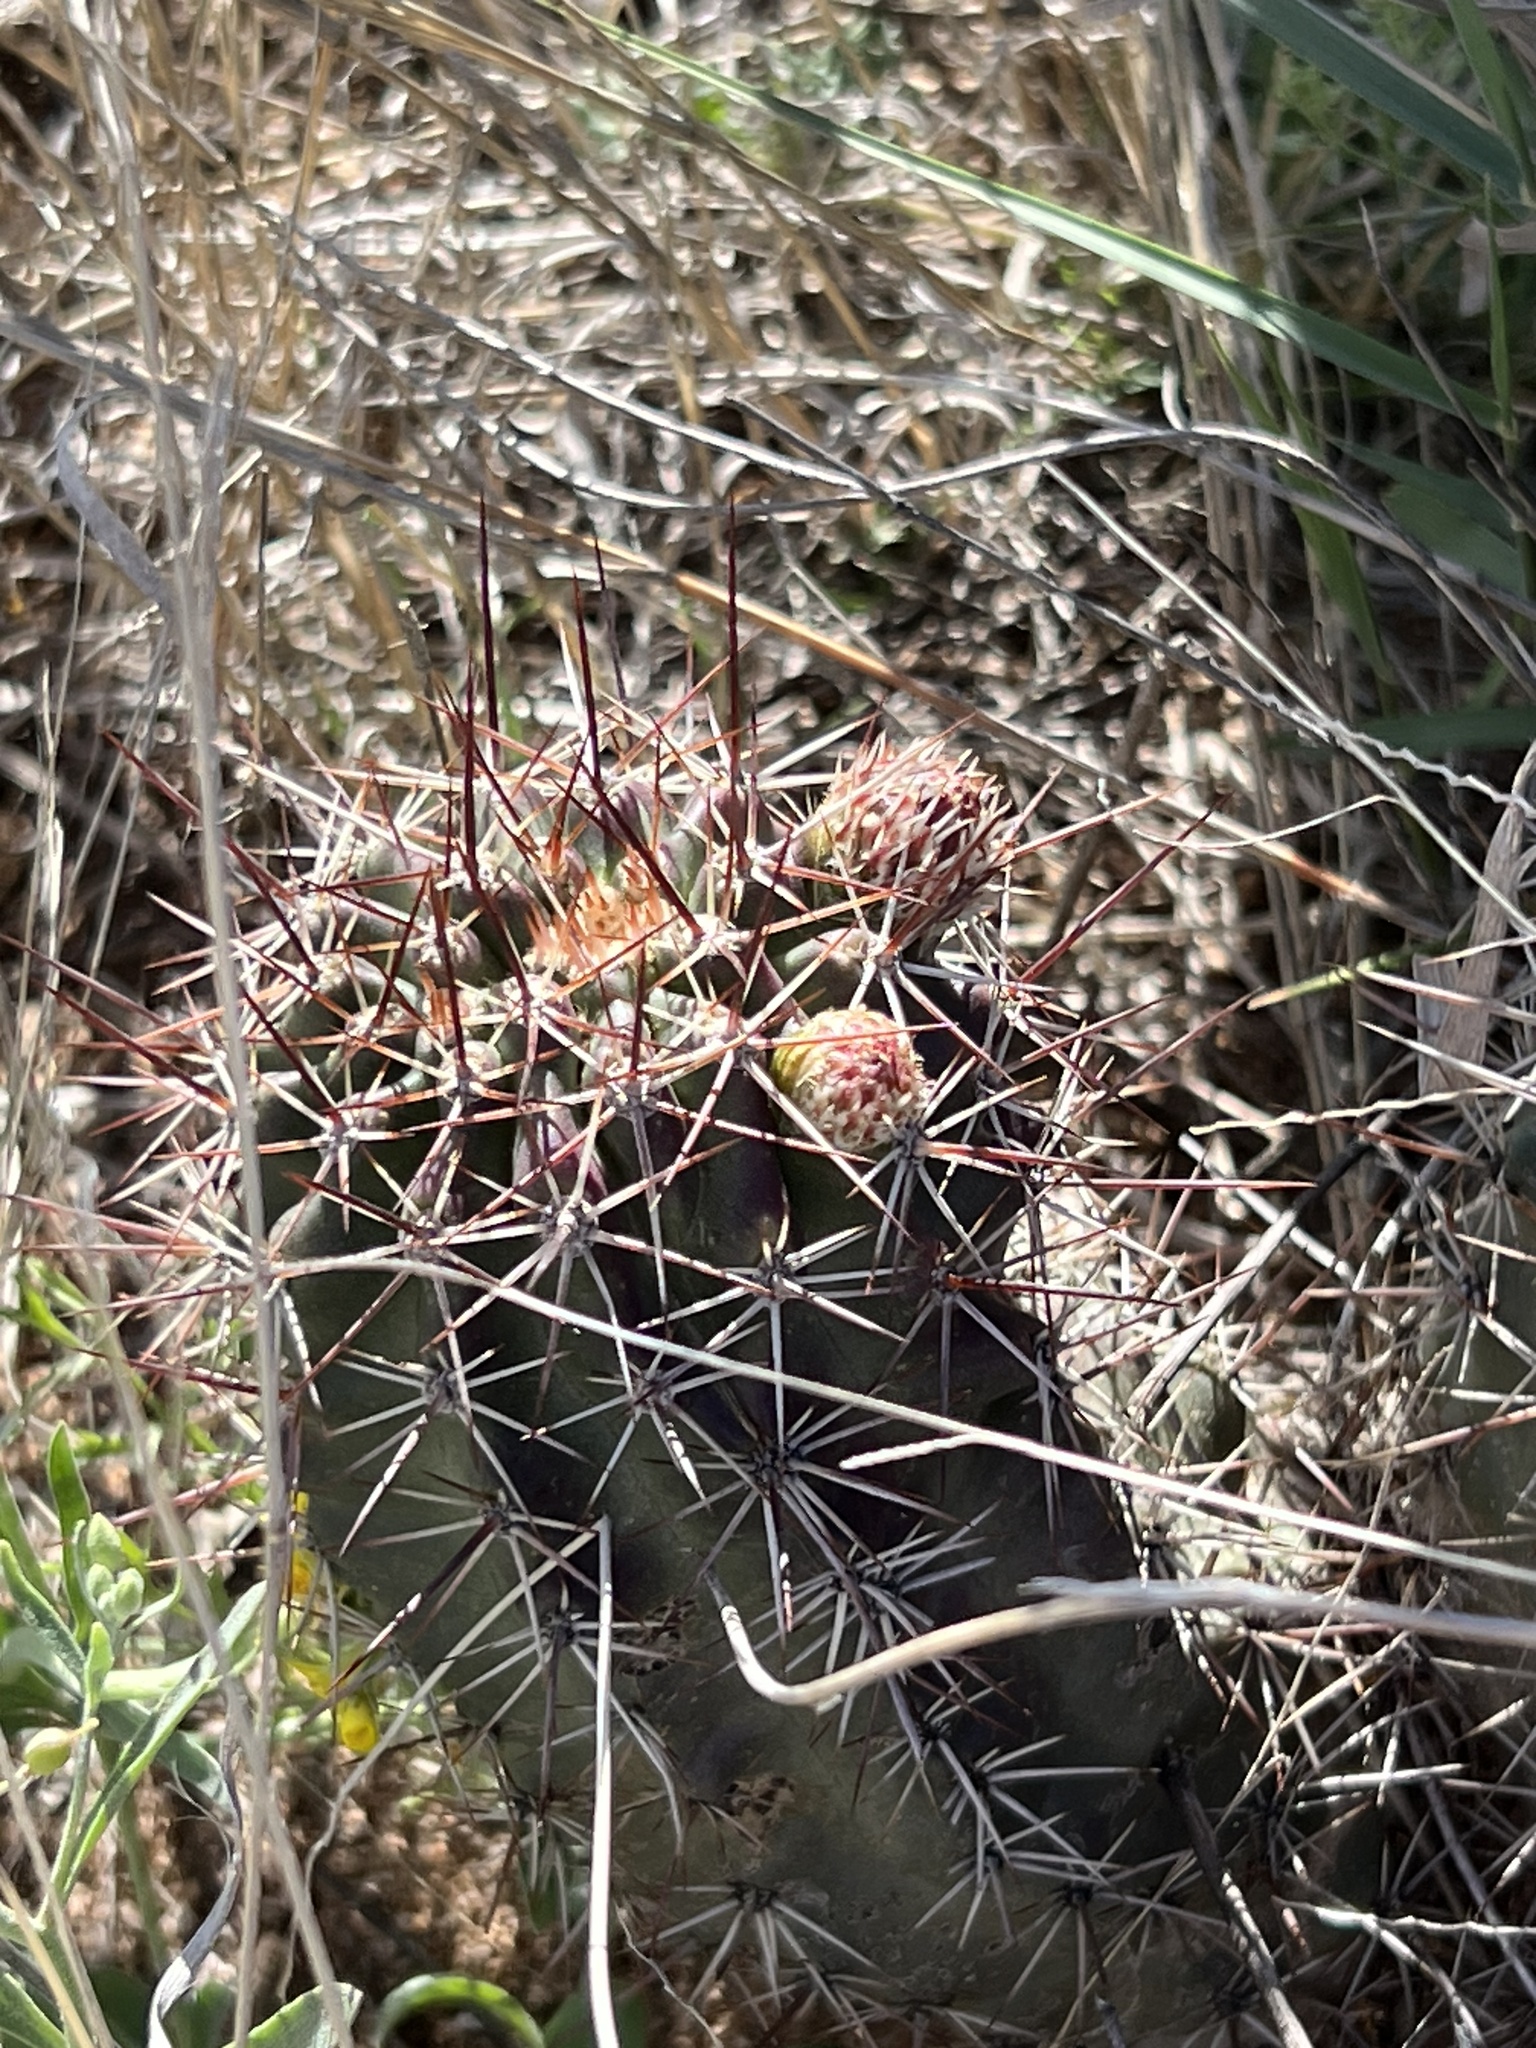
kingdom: Plantae
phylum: Tracheophyta
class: Magnoliopsida
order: Caryophyllales
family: Cactaceae
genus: Echinocereus
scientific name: Echinocereus fendleri
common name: Fendler's hedgehog cactus
